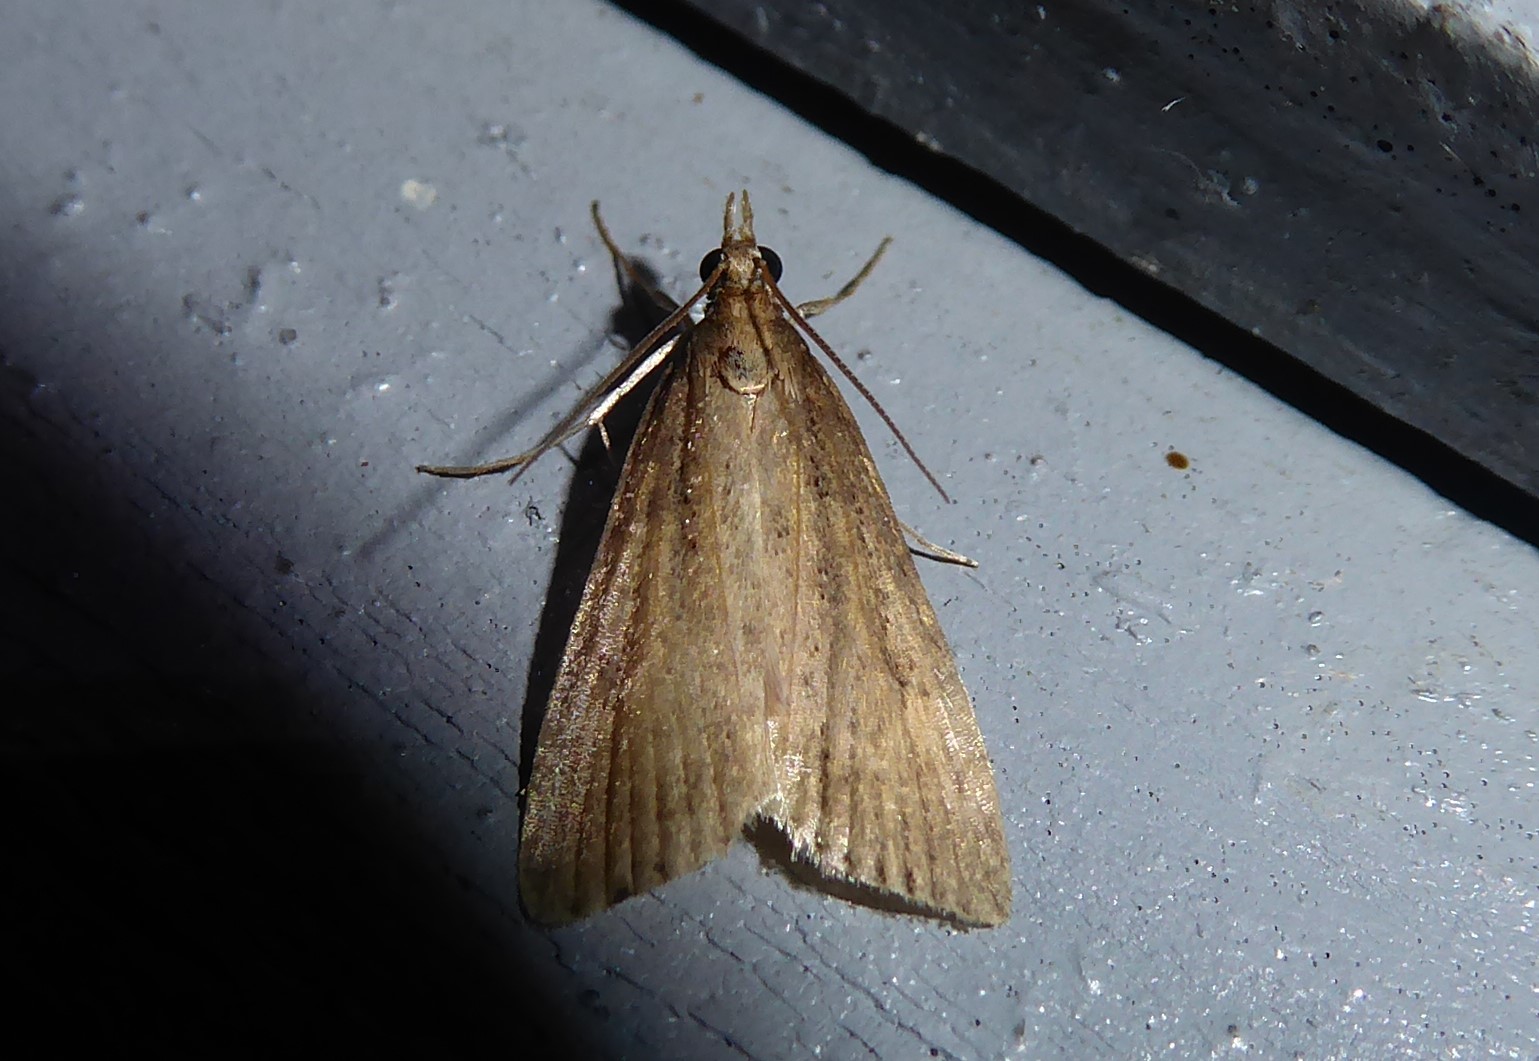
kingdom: Animalia
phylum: Arthropoda
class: Insecta
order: Lepidoptera
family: Crambidae
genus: Eudonia
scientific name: Eudonia octophora
